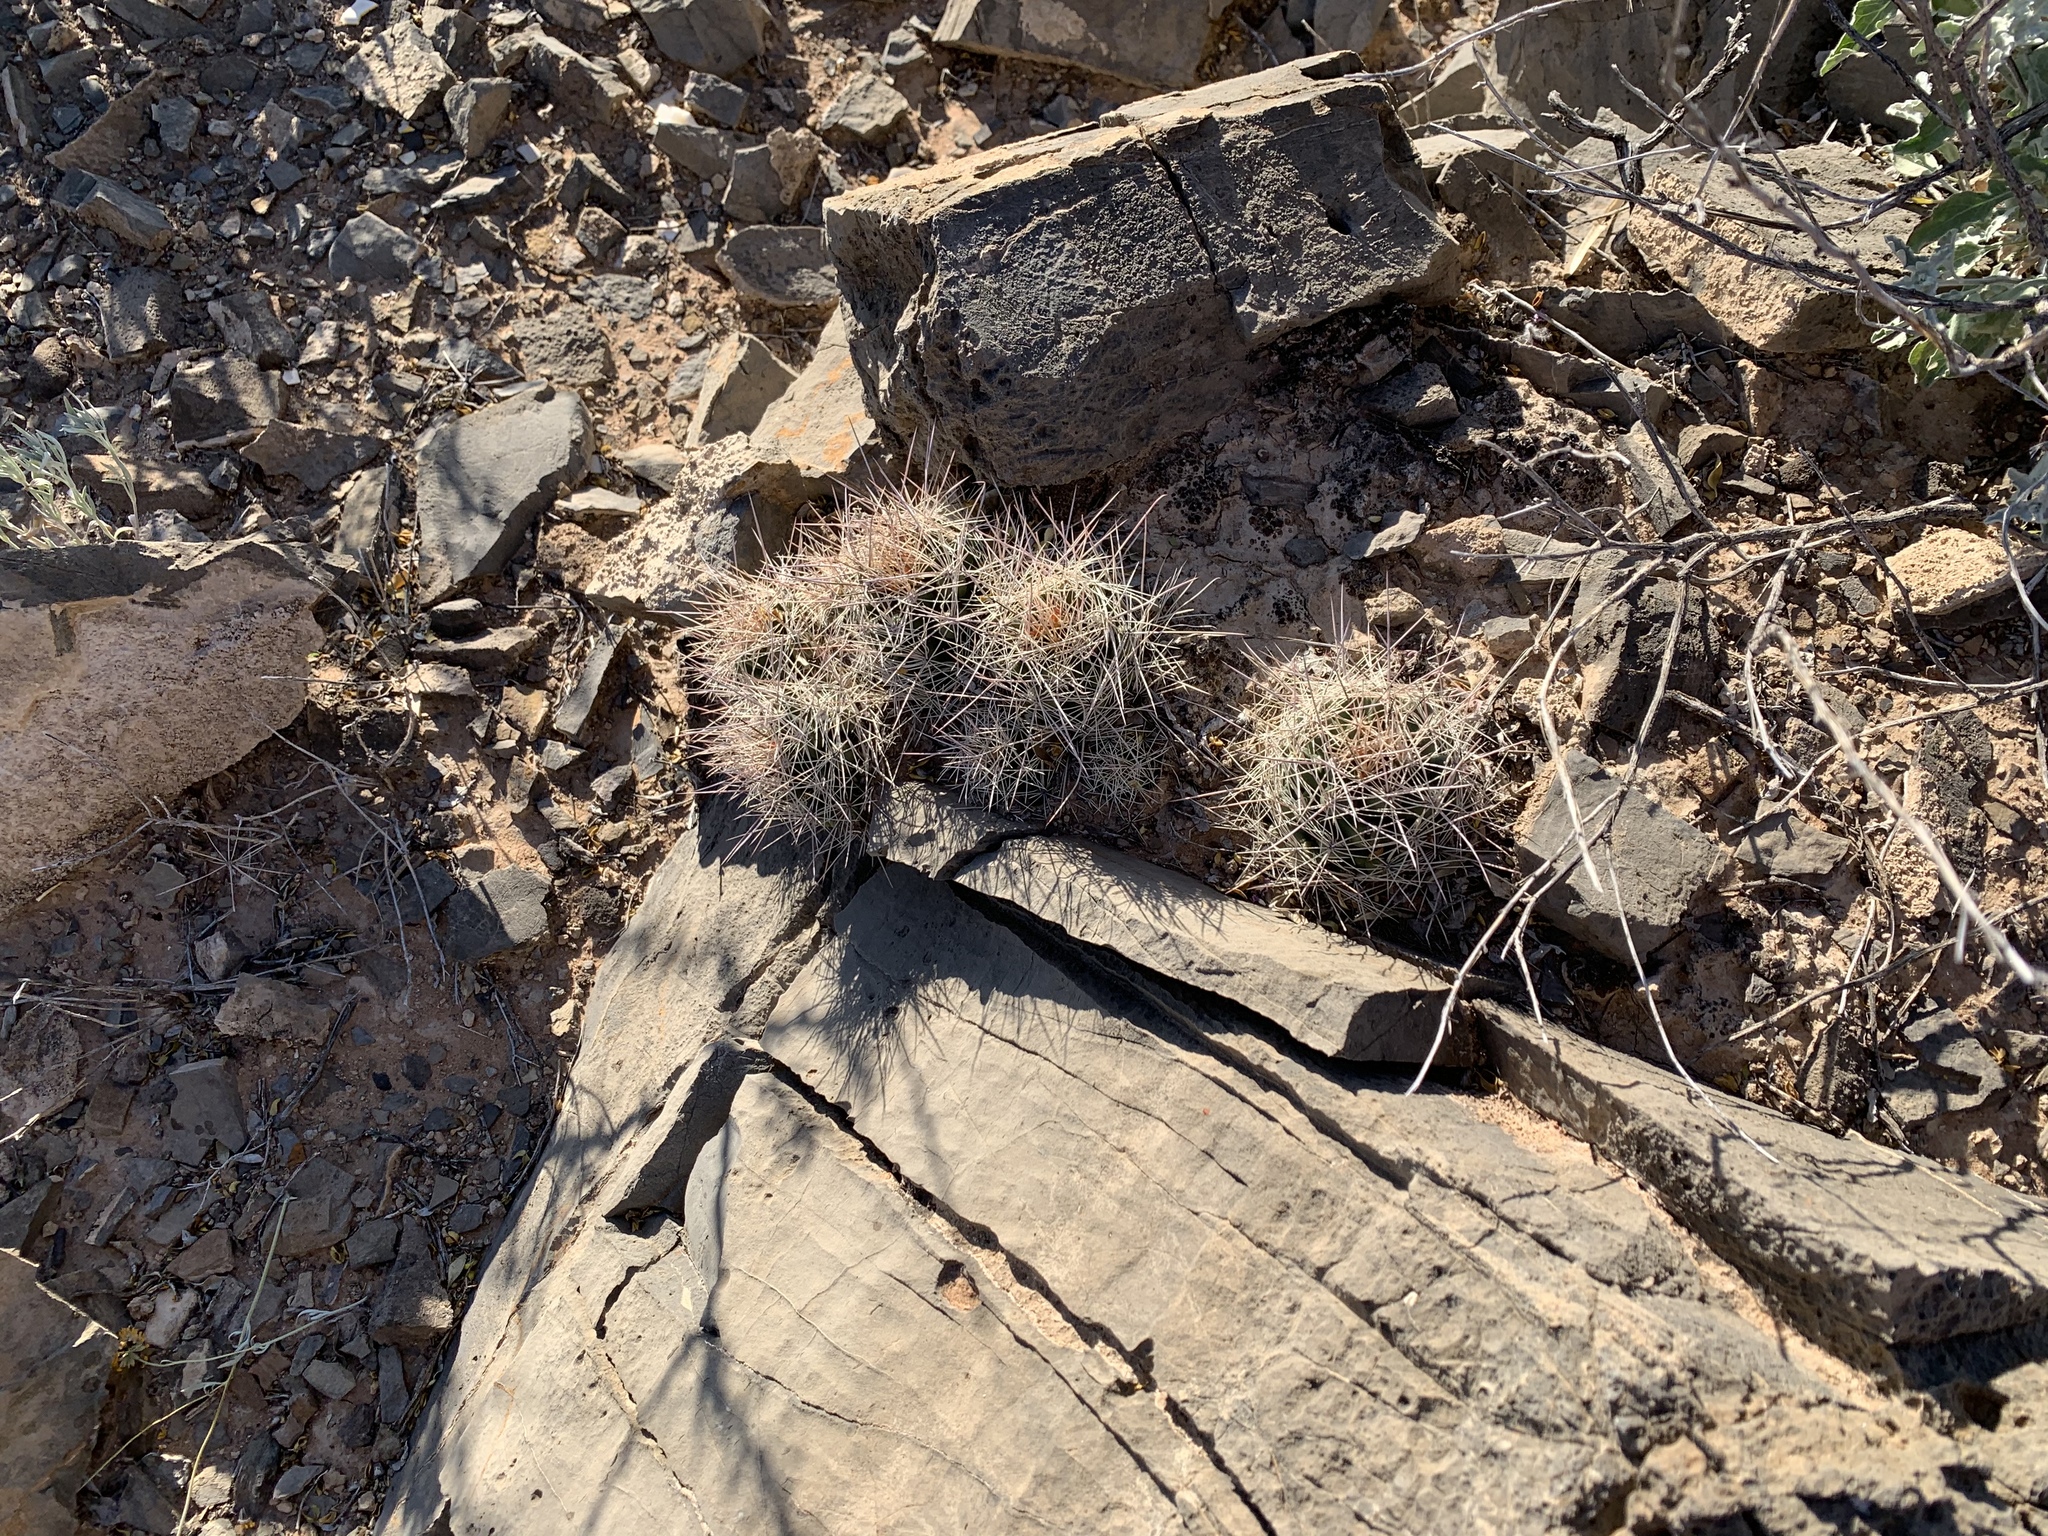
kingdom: Plantae
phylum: Tracheophyta
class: Magnoliopsida
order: Caryophyllales
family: Cactaceae
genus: Coryphantha
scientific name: Coryphantha macromeris
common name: Nipple beehive cactus
